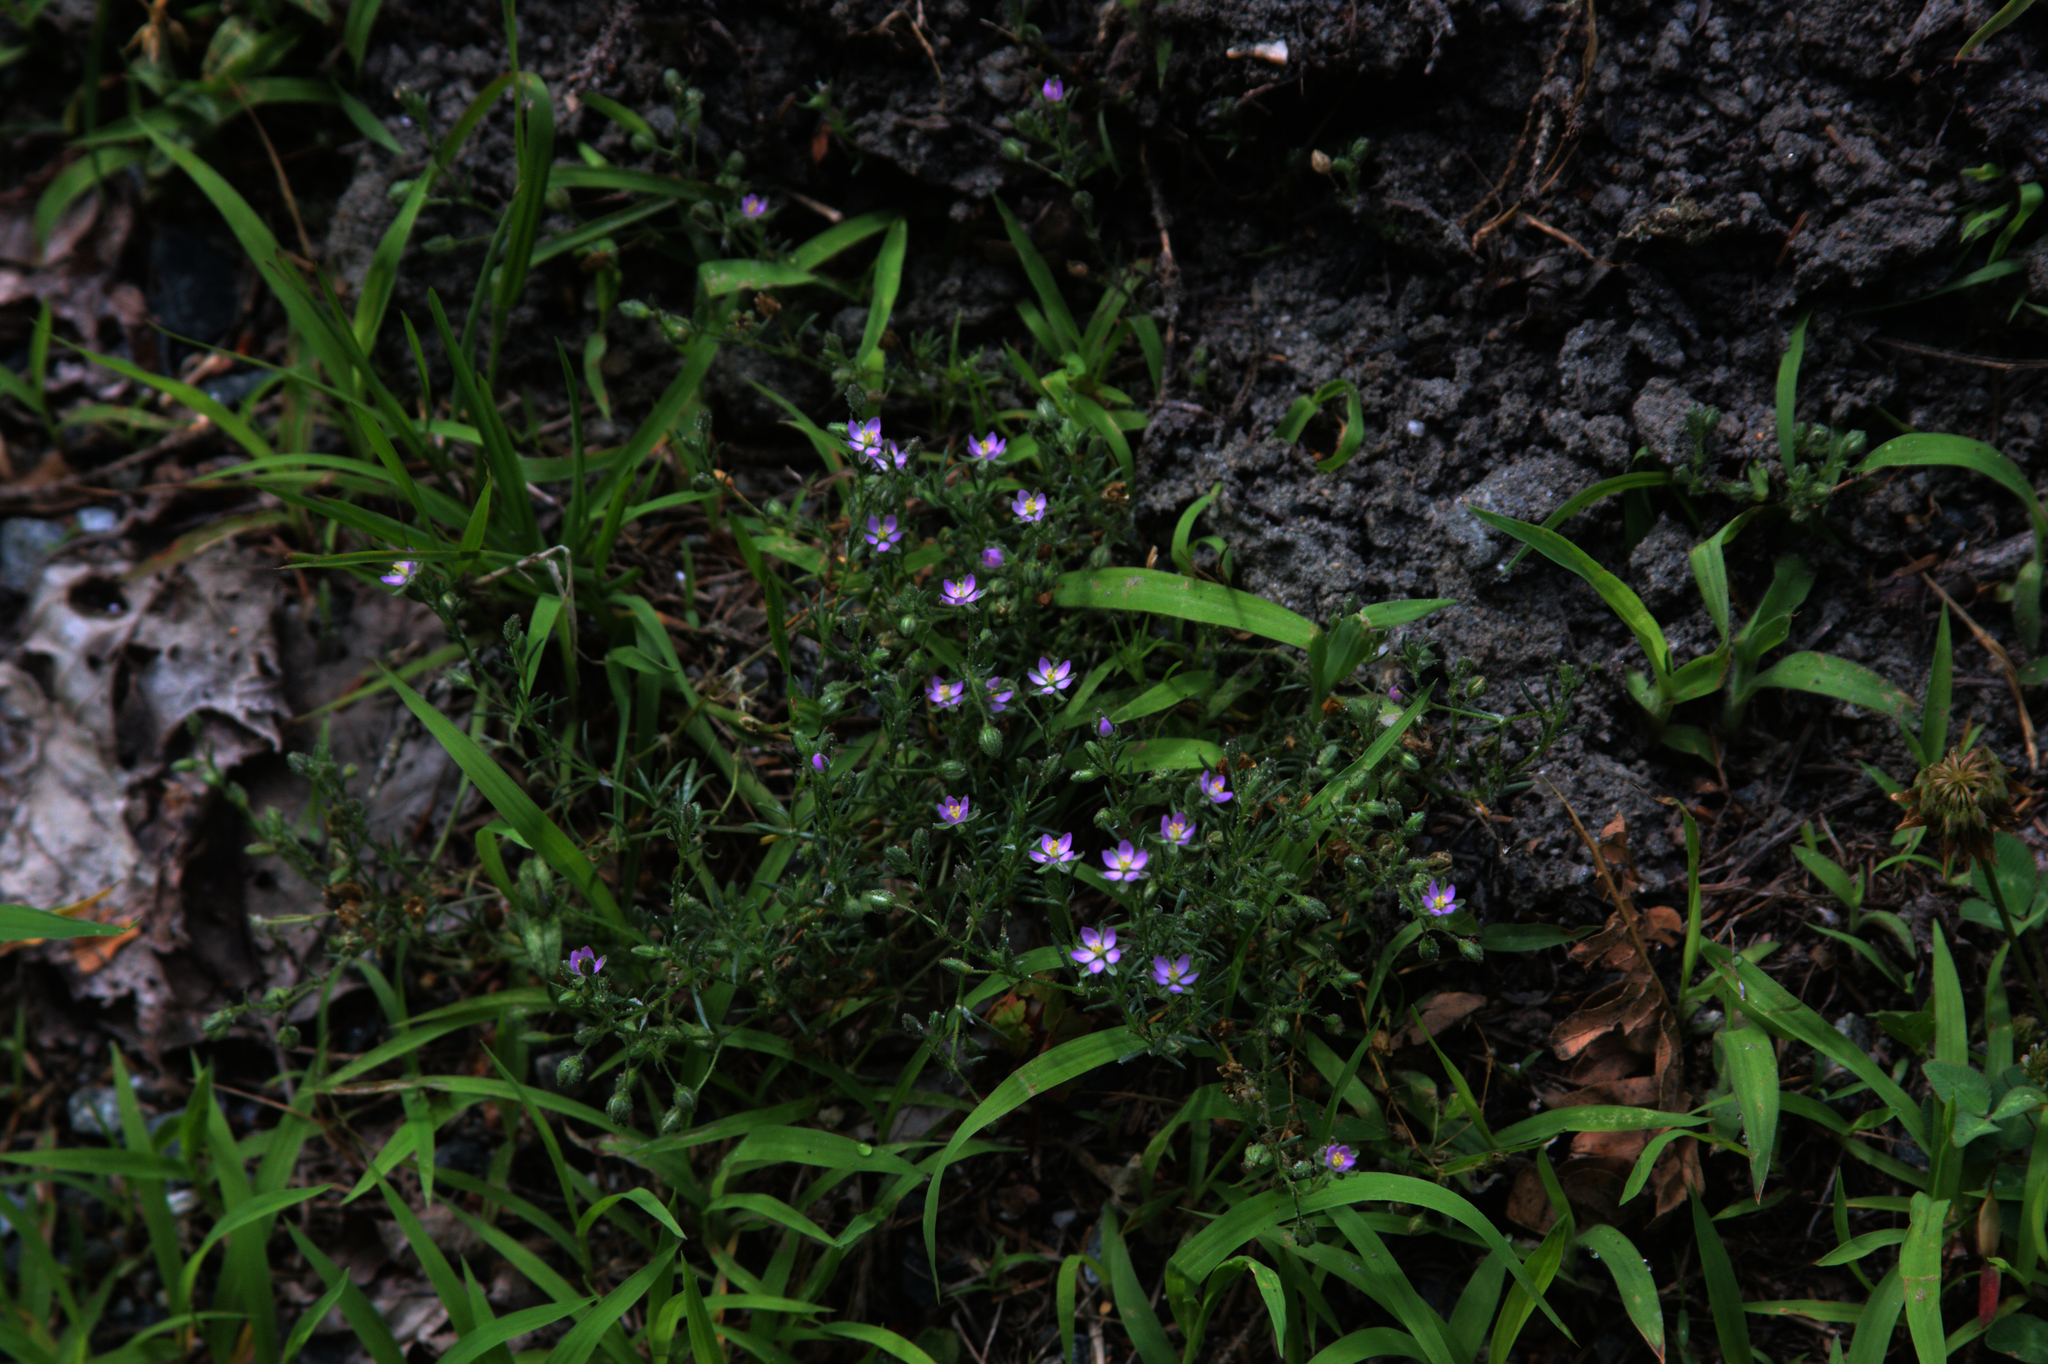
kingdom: Plantae
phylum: Tracheophyta
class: Magnoliopsida
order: Caryophyllales
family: Caryophyllaceae
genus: Spergularia
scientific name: Spergularia rubra
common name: Red sand-spurrey
